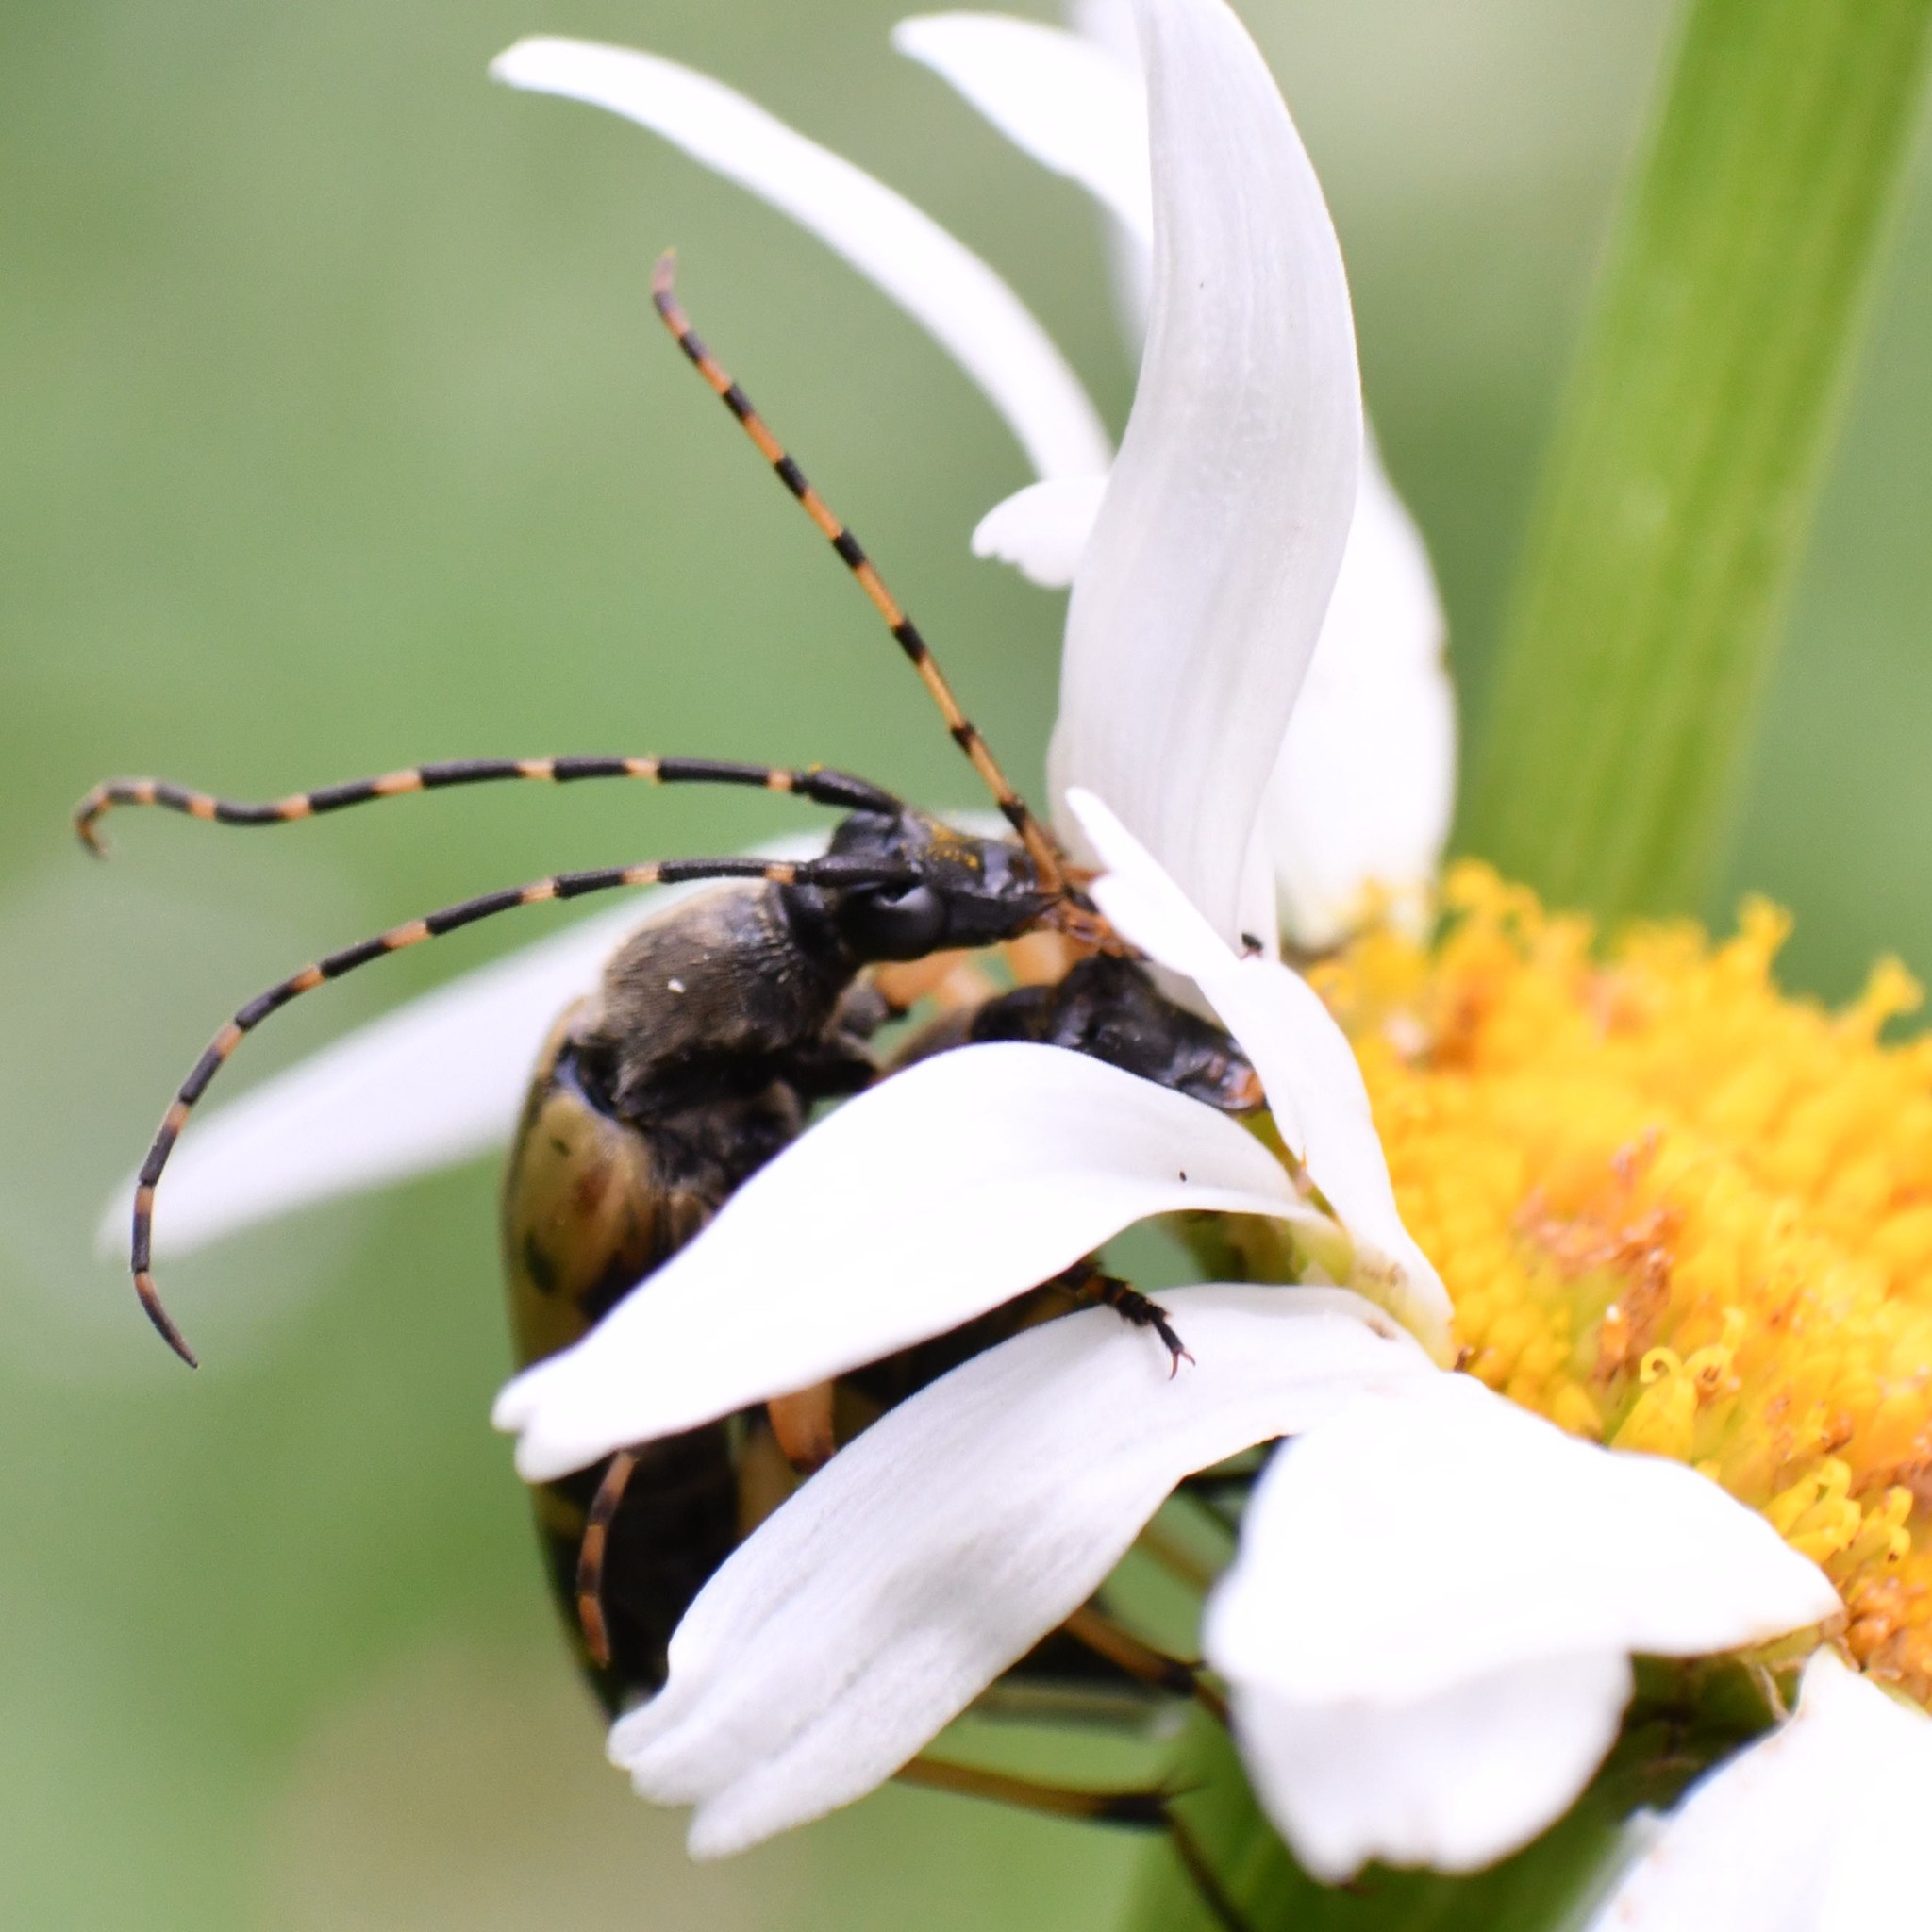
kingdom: Animalia
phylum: Arthropoda
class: Insecta
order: Coleoptera
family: Cerambycidae
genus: Rutpela
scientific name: Rutpela maculata
